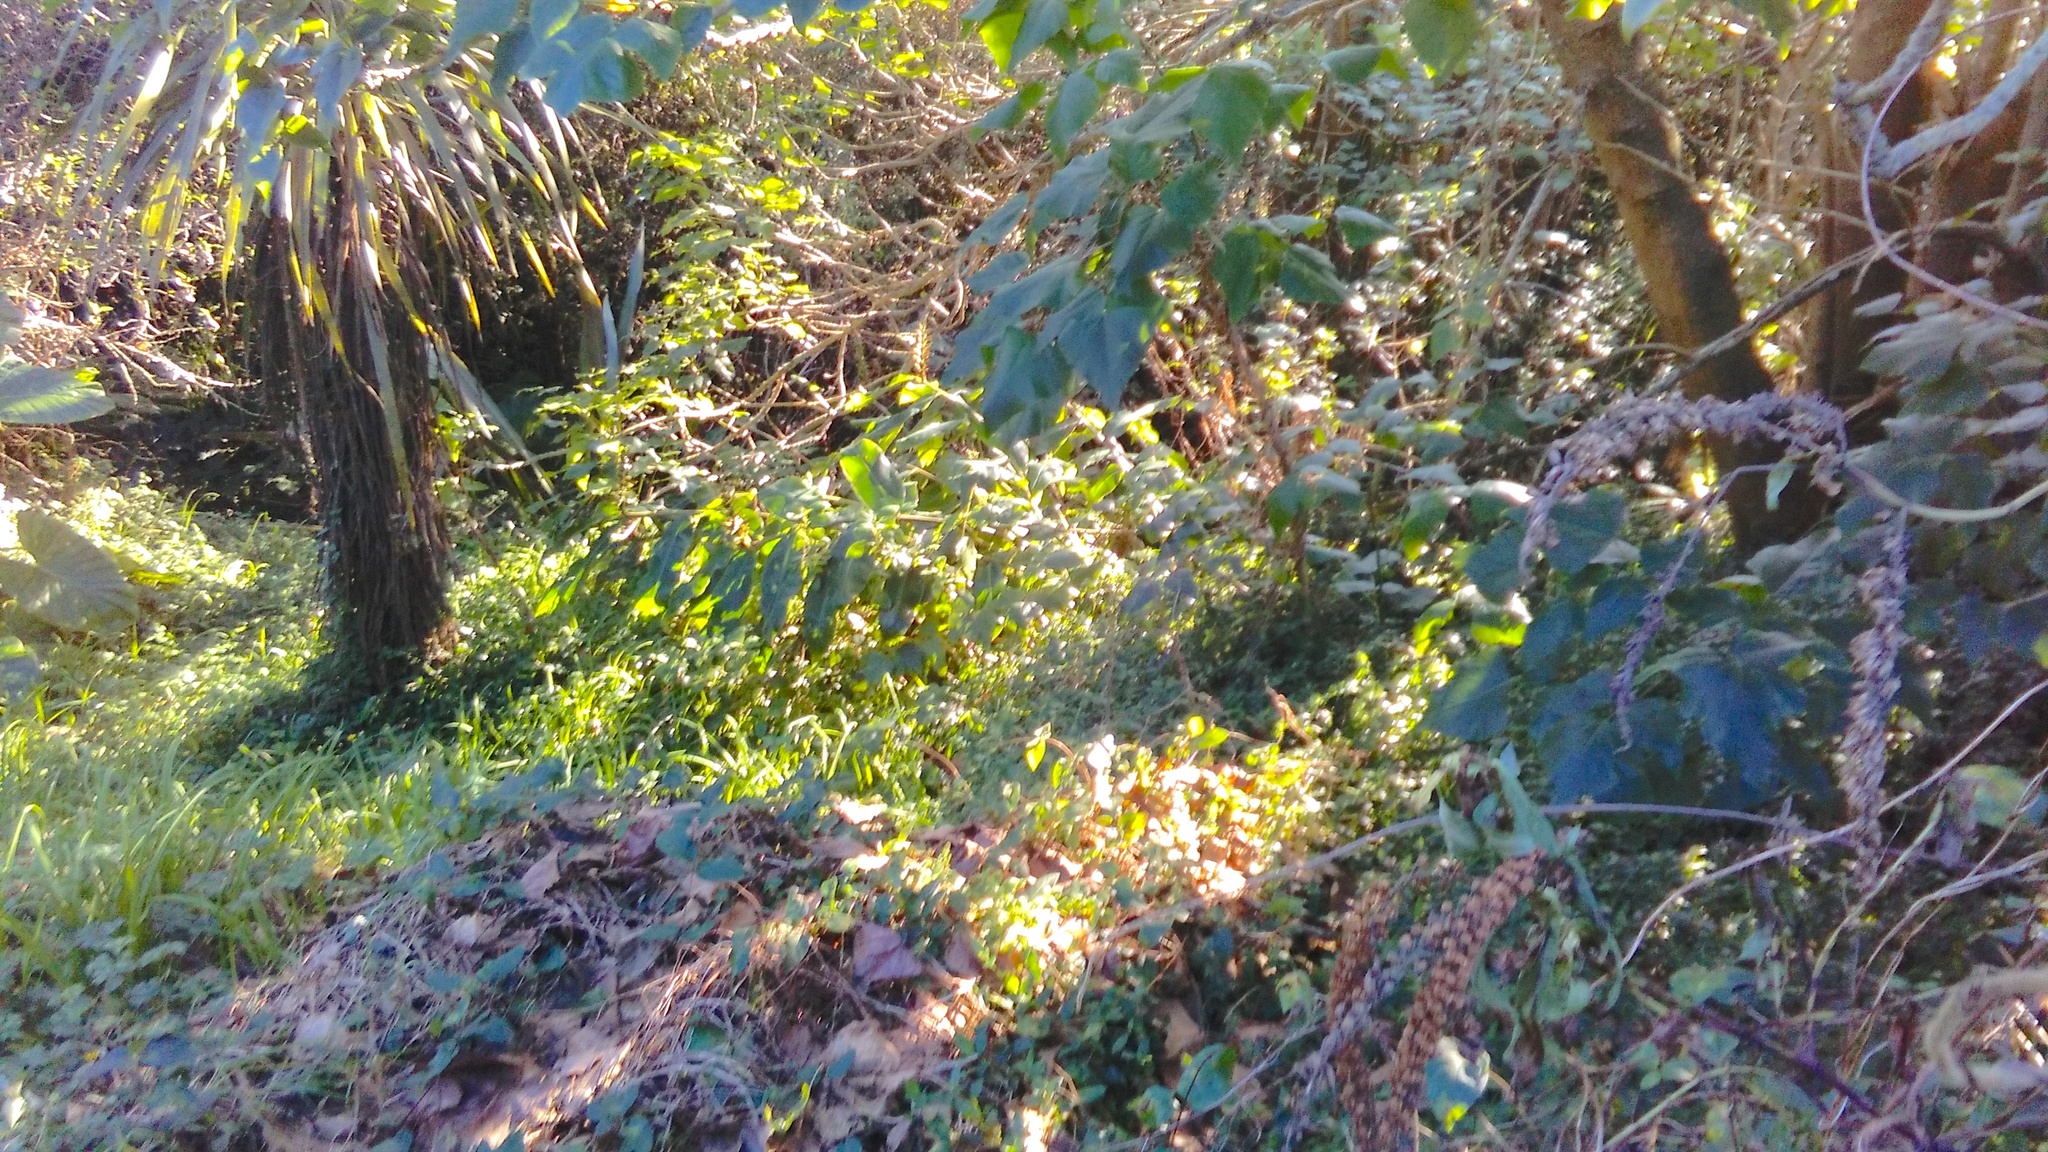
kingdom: Plantae
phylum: Tracheophyta
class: Liliopsida
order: Zingiberales
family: Zingiberaceae
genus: Hedychium
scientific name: Hedychium gardnerianum
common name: Himalayan ginger
